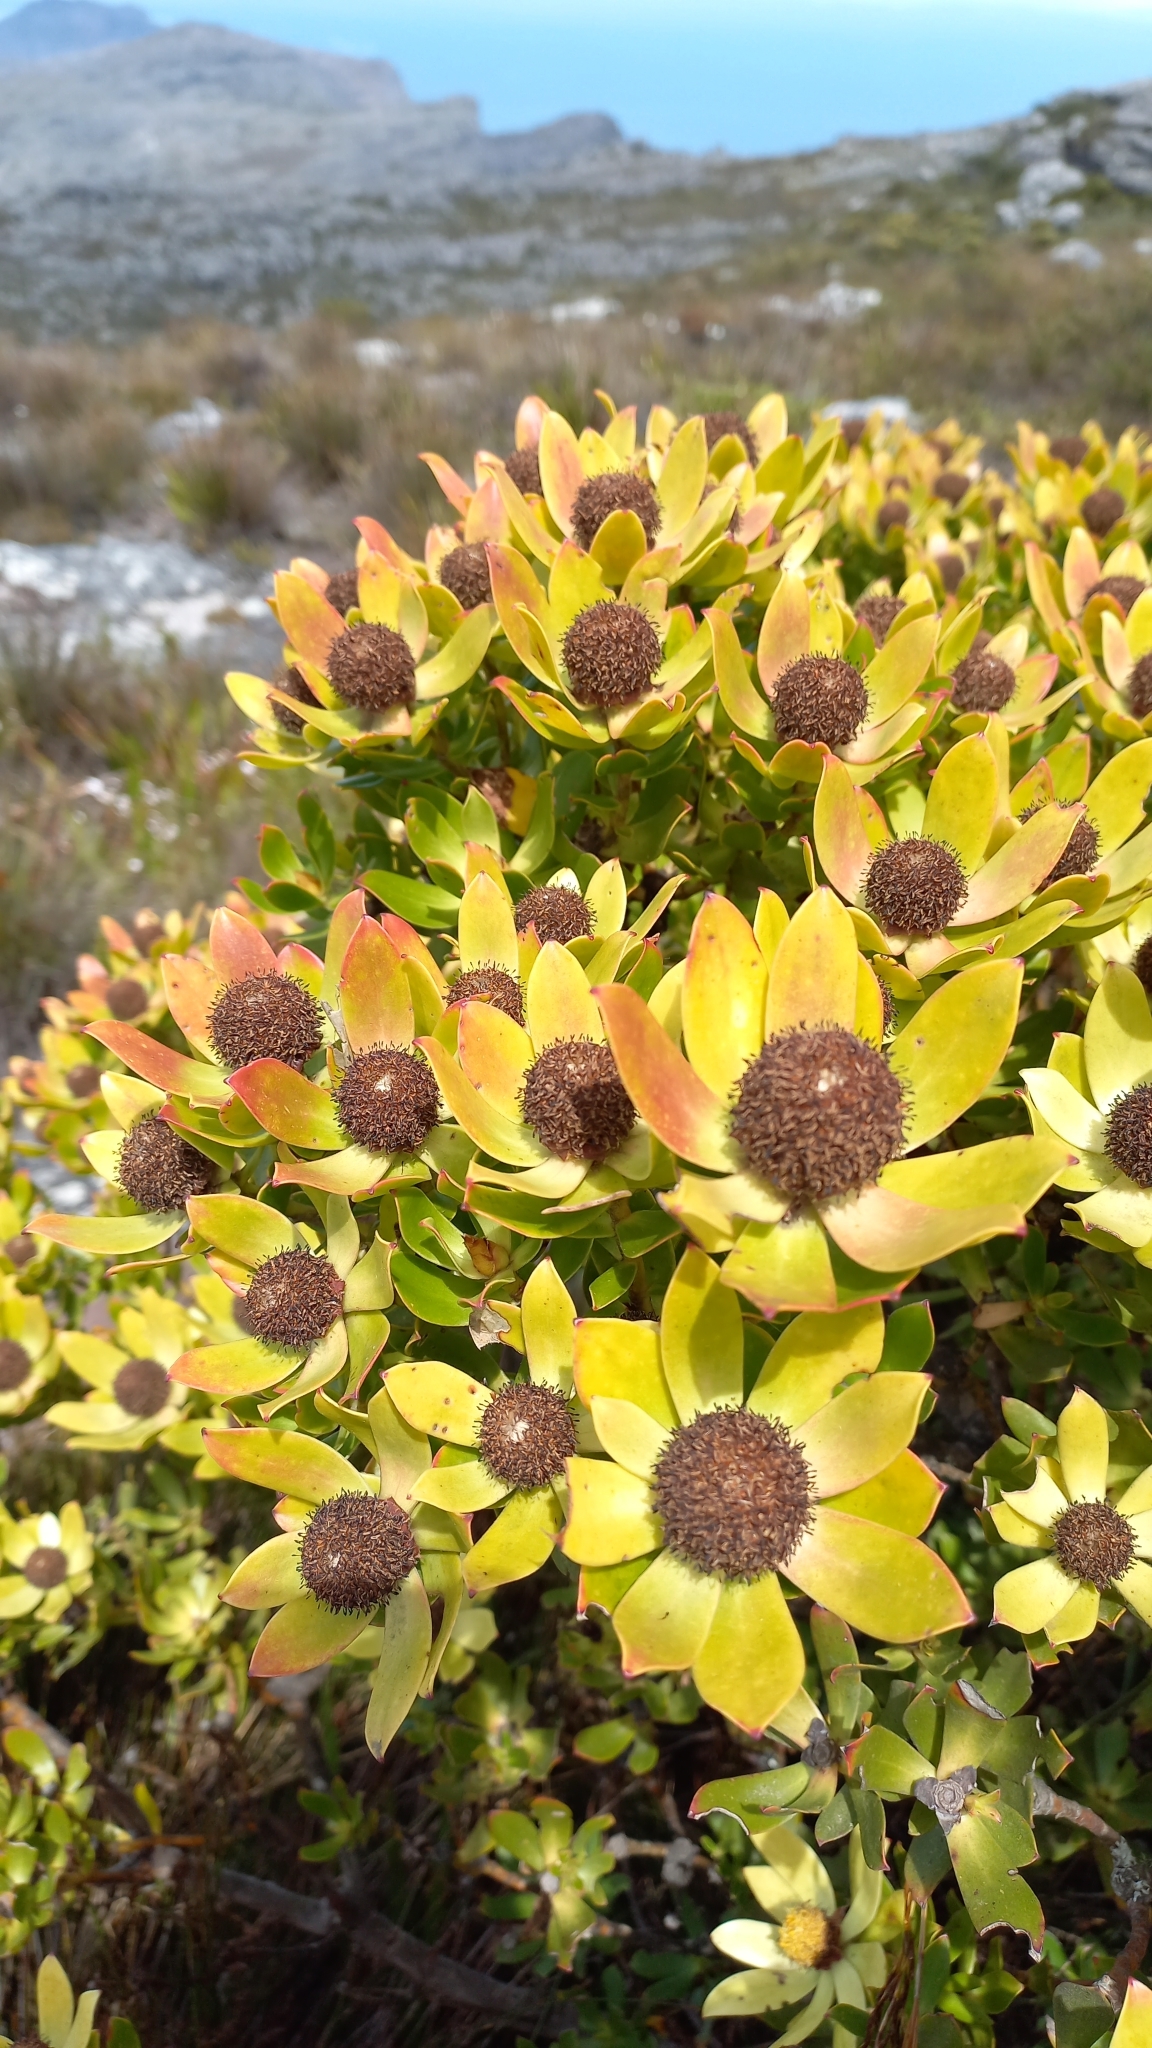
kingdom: Plantae
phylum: Tracheophyta
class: Magnoliopsida
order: Proteales
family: Proteaceae
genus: Leucadendron
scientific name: Leucadendron strobilinum
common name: Mountain rose
